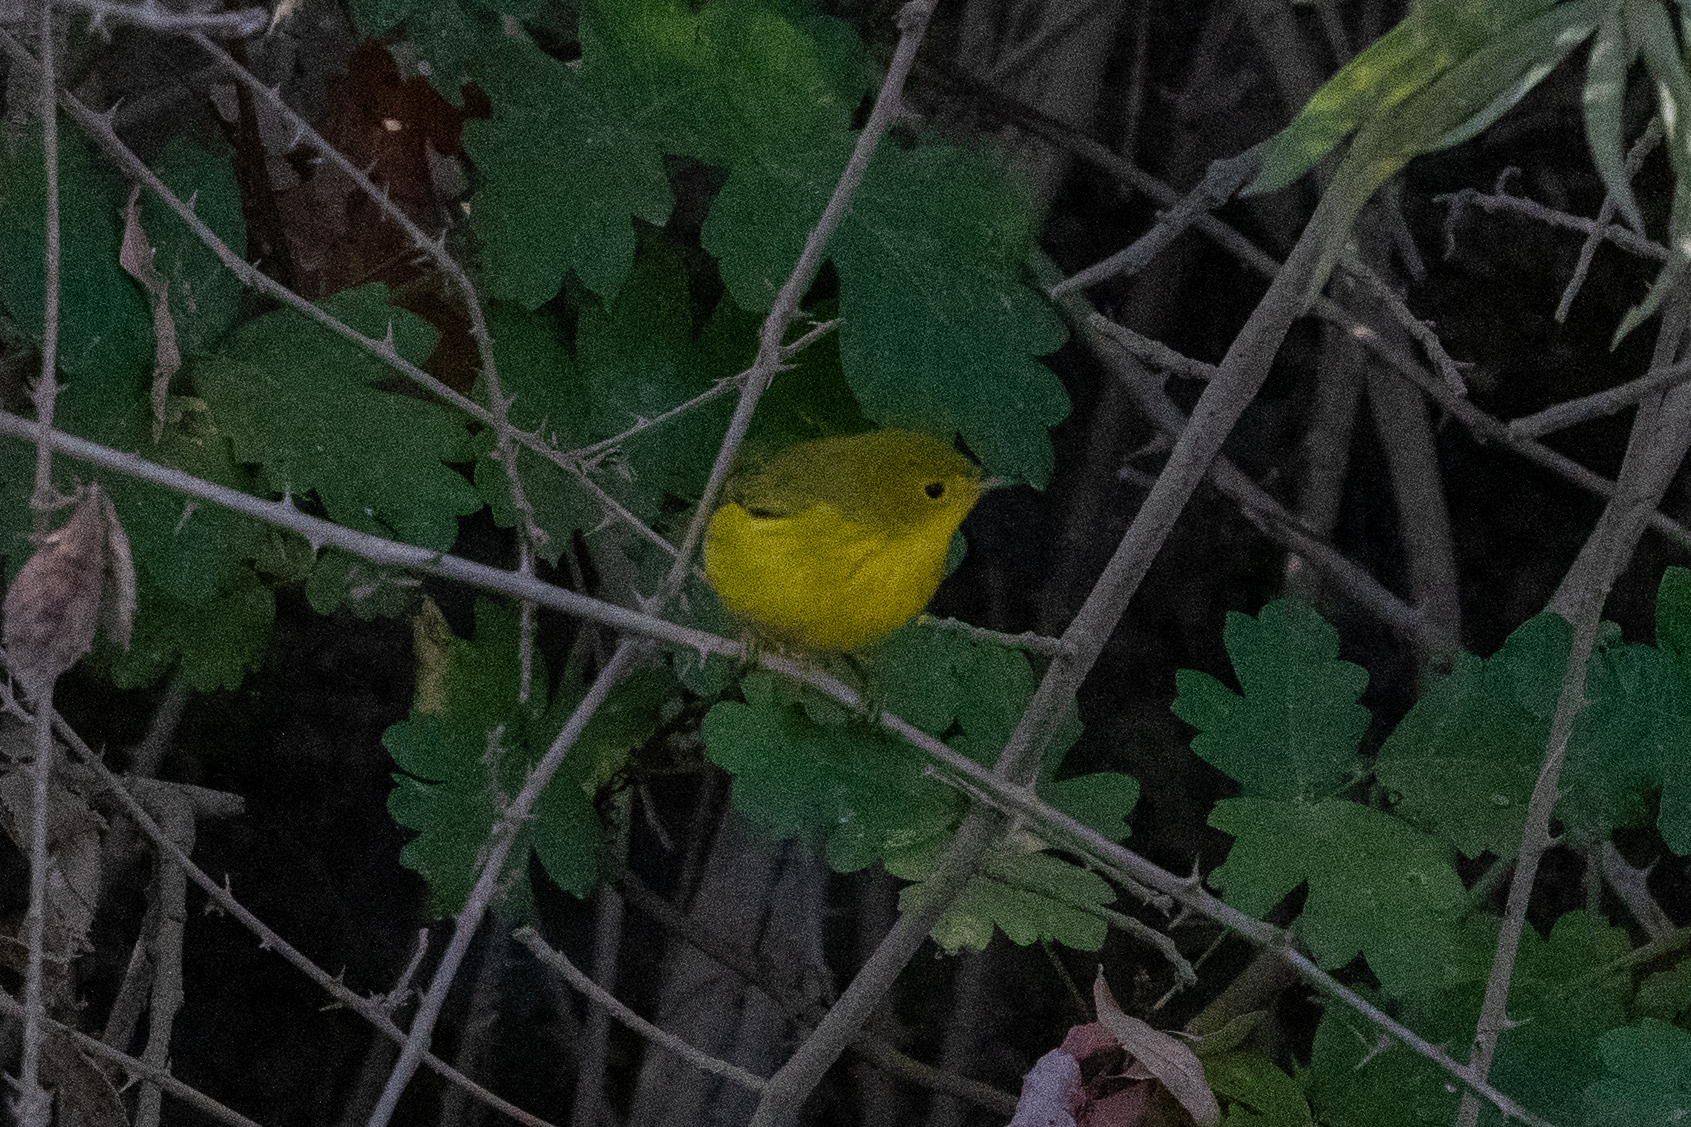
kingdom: Animalia
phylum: Chordata
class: Aves
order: Passeriformes
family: Parulidae
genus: Setophaga
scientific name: Setophaga petechia
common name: Yellow warbler
